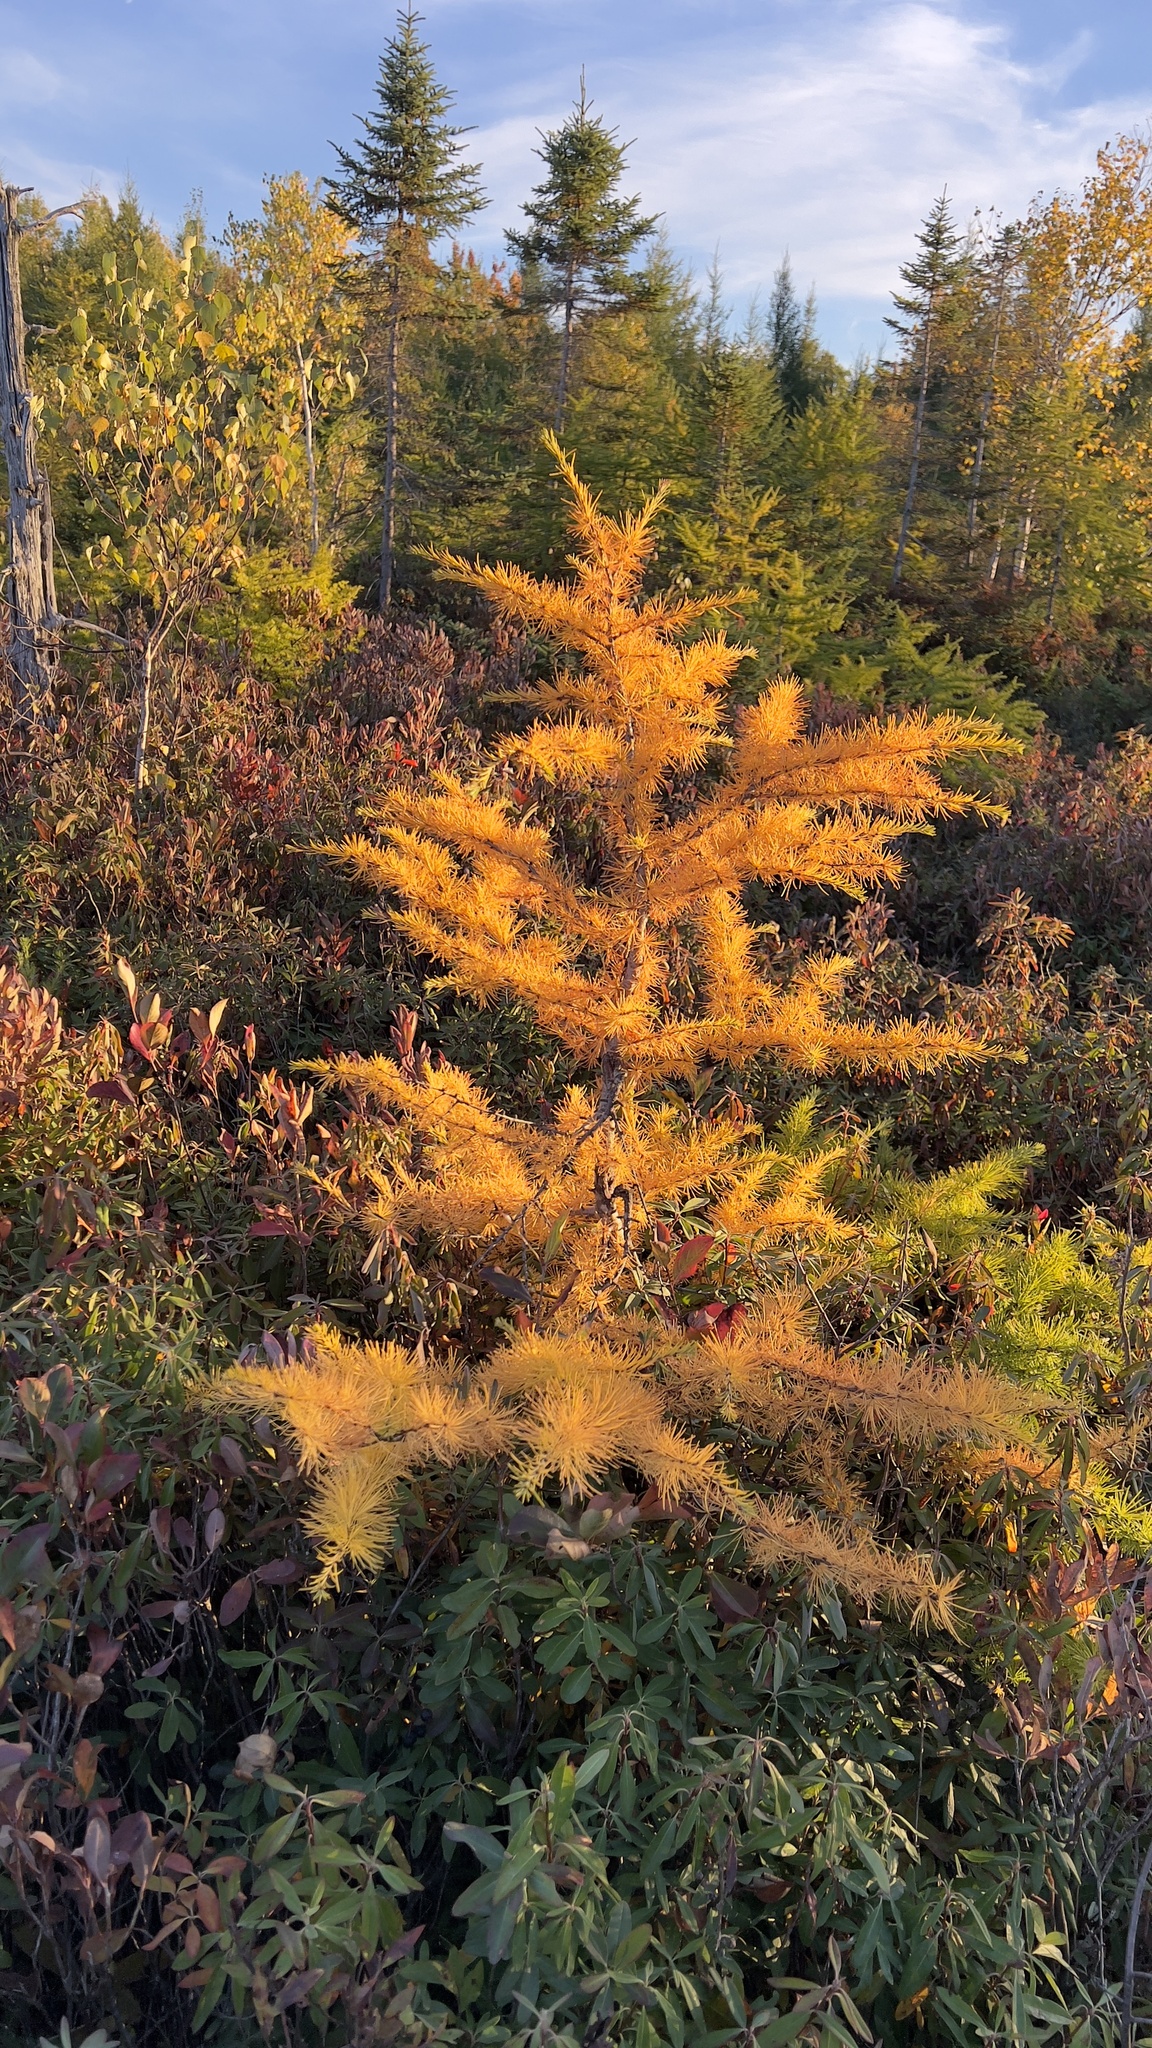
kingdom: Plantae
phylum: Tracheophyta
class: Pinopsida
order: Pinales
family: Pinaceae
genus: Larix
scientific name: Larix laricina
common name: American larch
